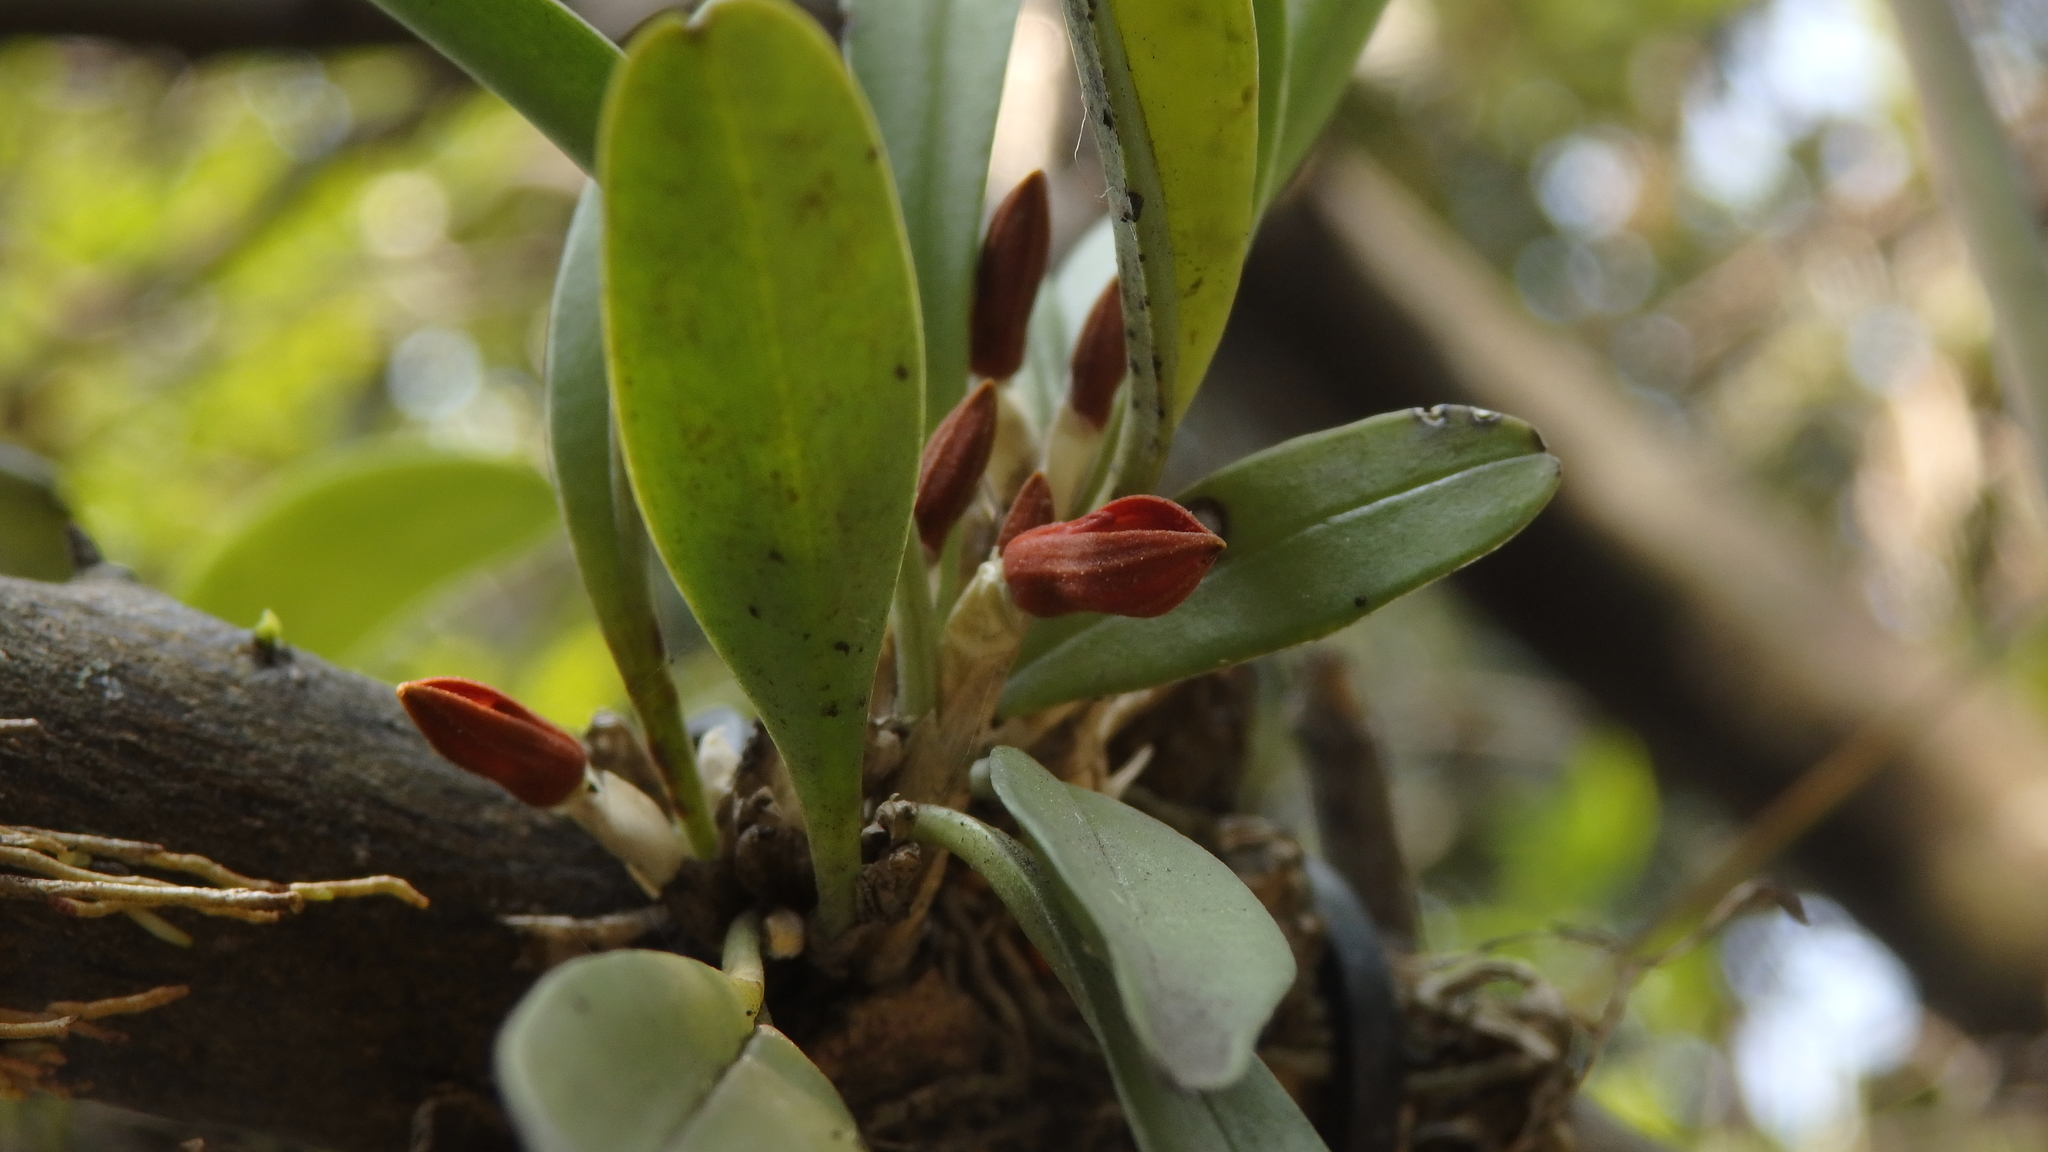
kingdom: Plantae
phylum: Tracheophyta
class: Liliopsida
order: Asparagales
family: Orchidaceae
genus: Specklinia
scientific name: Specklinia tribuloides
